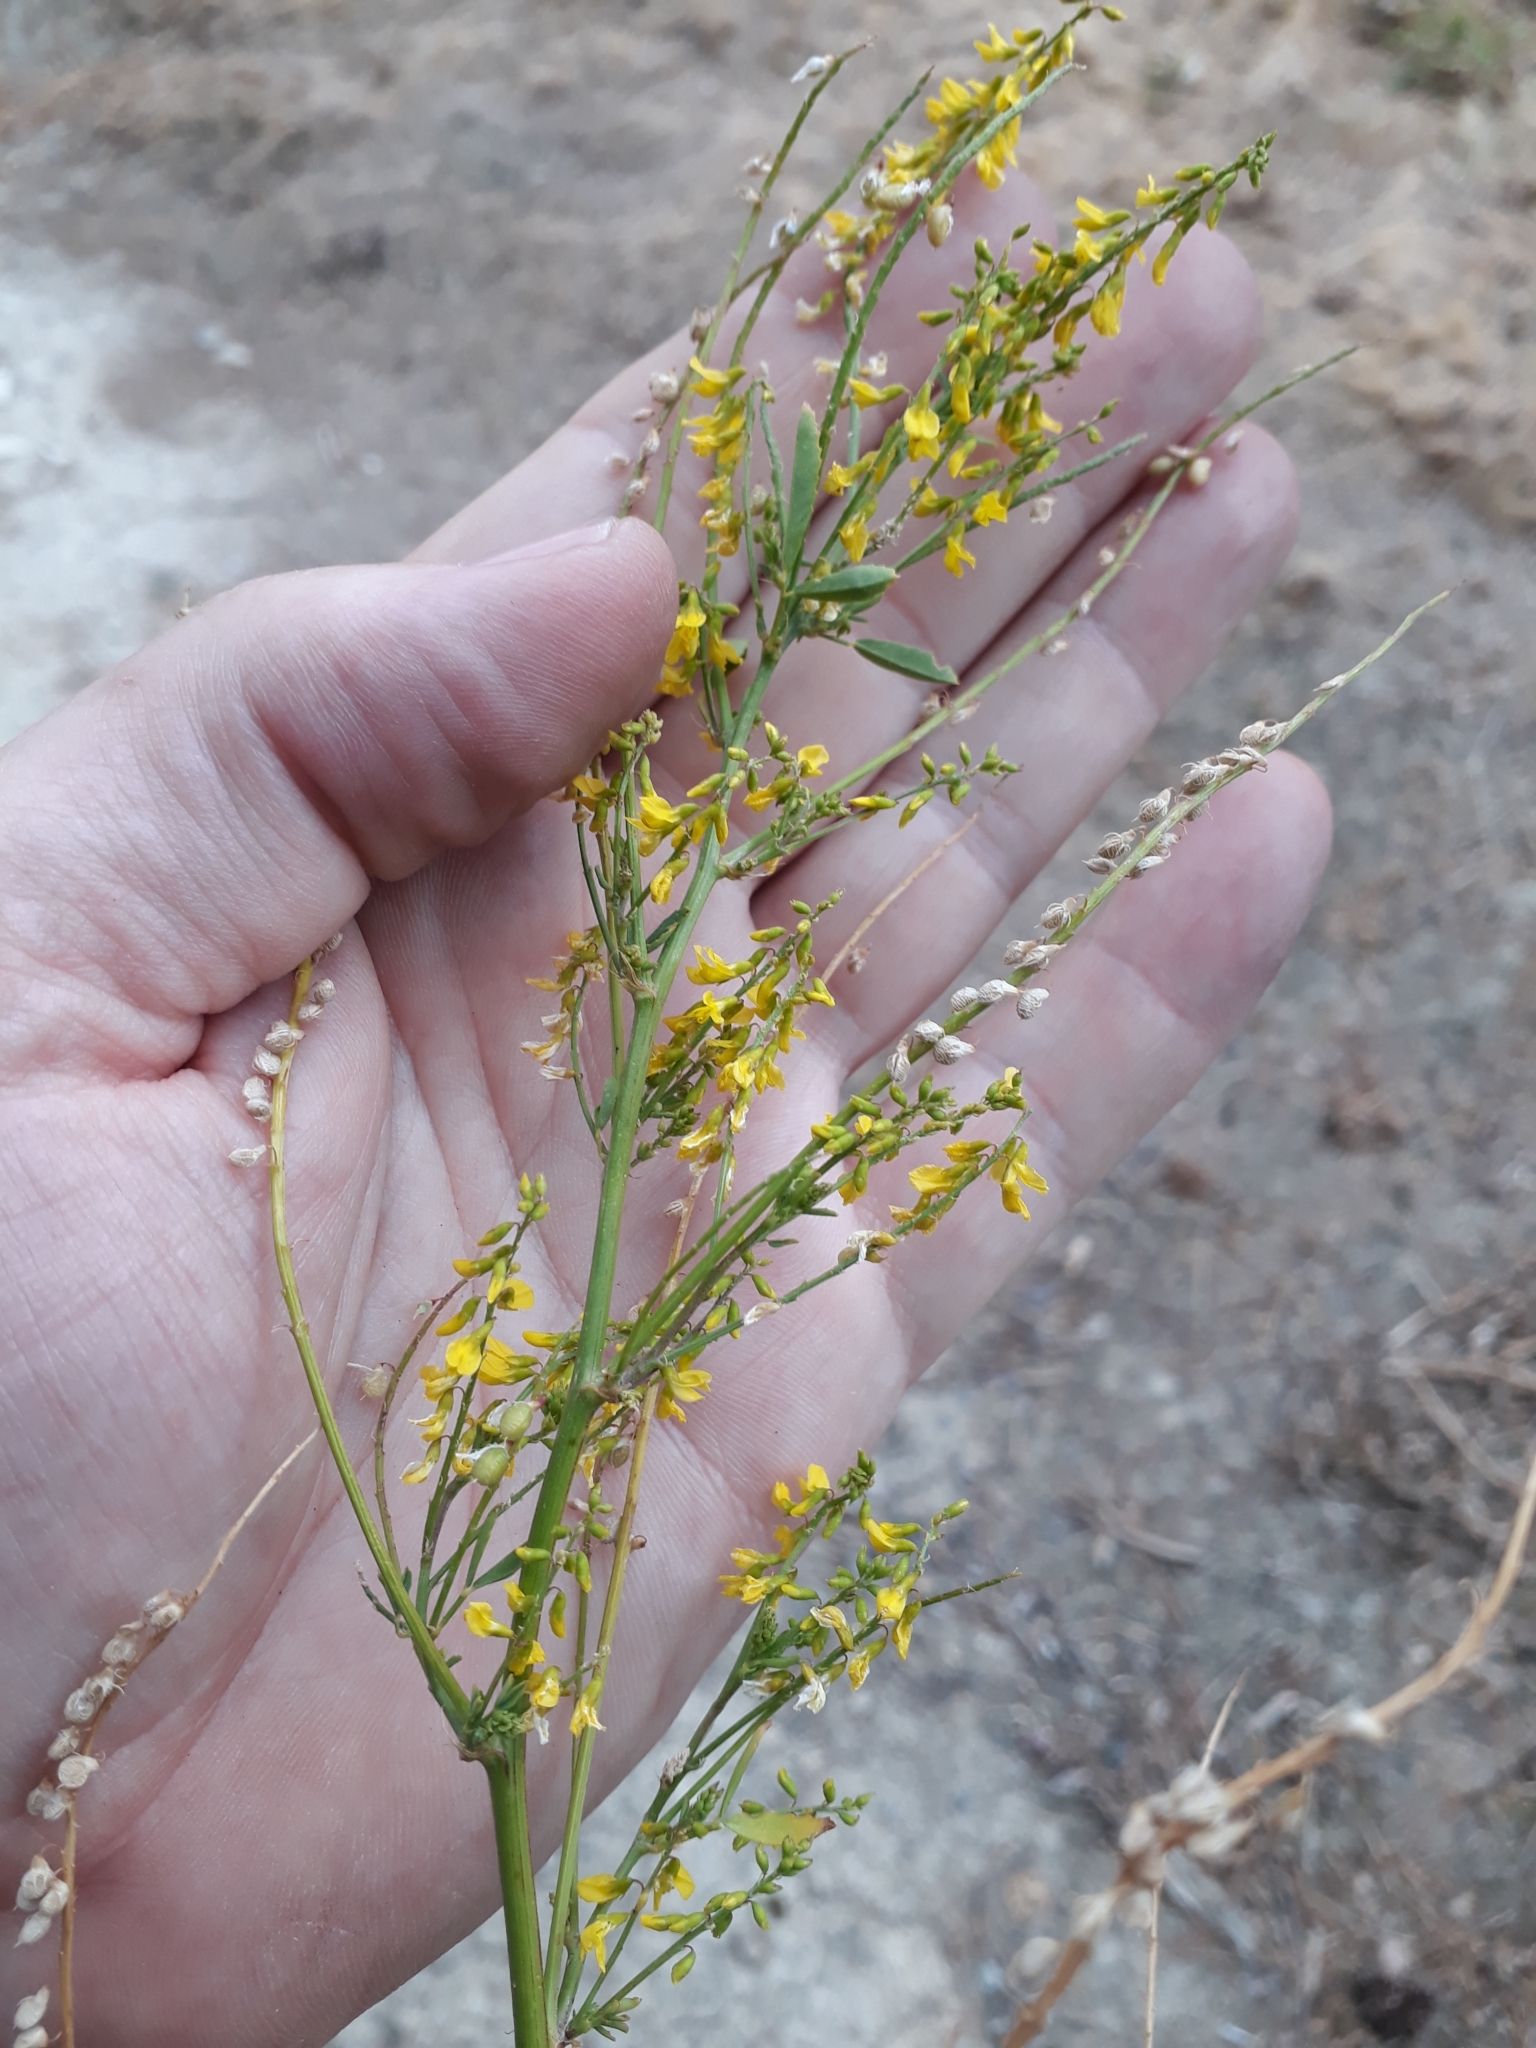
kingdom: Plantae
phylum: Tracheophyta
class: Magnoliopsida
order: Fabales
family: Fabaceae
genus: Melilotus
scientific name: Melilotus officinalis
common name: Sweetclover
